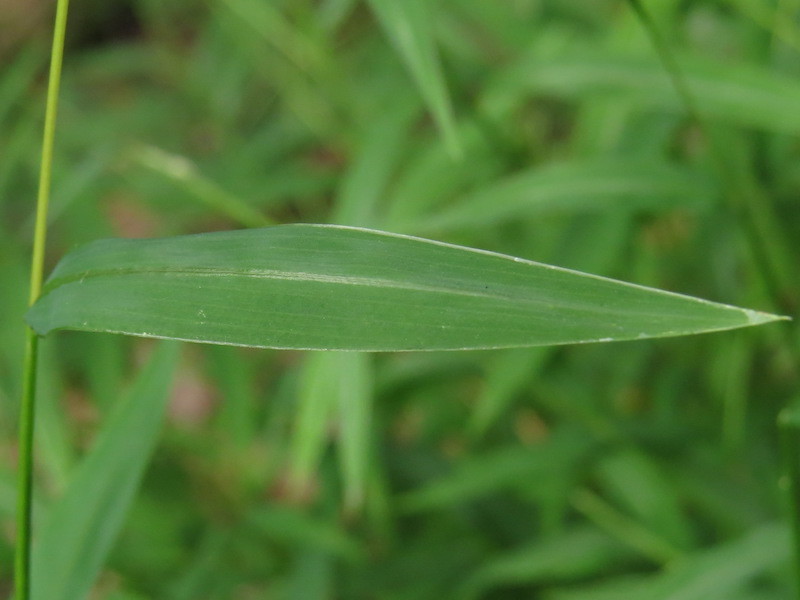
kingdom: Plantae
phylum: Tracheophyta
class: Liliopsida
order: Poales
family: Poaceae
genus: Microstegium
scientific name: Microstegium vimineum
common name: Japanese stiltgrass
